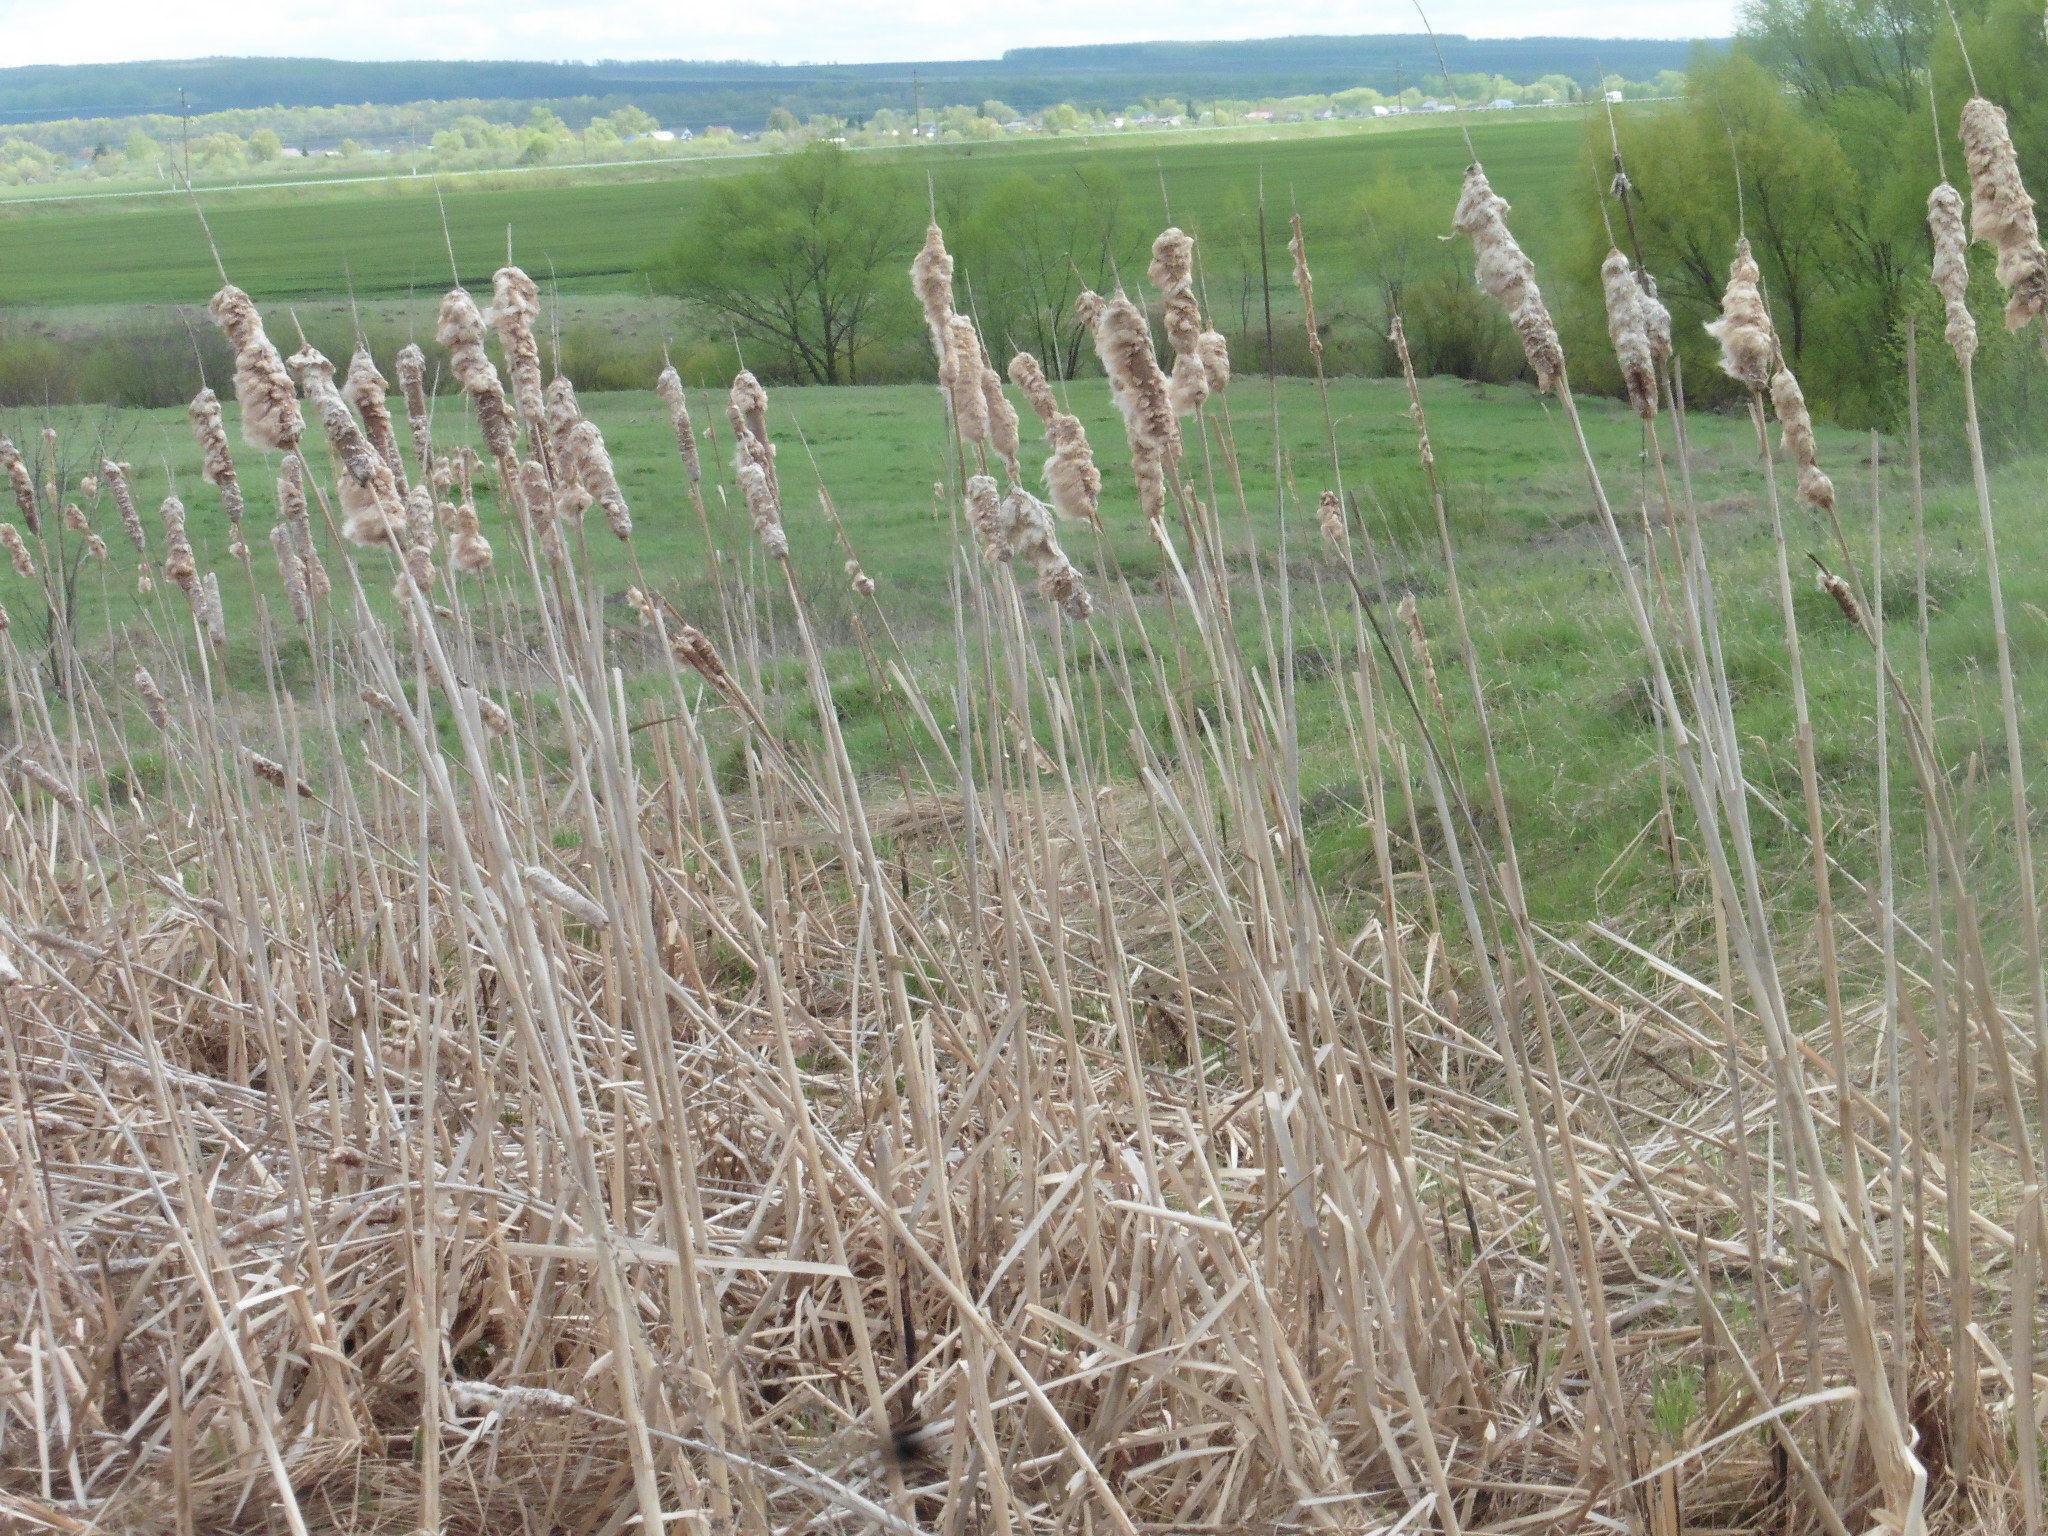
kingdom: Plantae
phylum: Tracheophyta
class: Liliopsida
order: Poales
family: Typhaceae
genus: Typha
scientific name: Typha latifolia
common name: Broadleaf cattail
